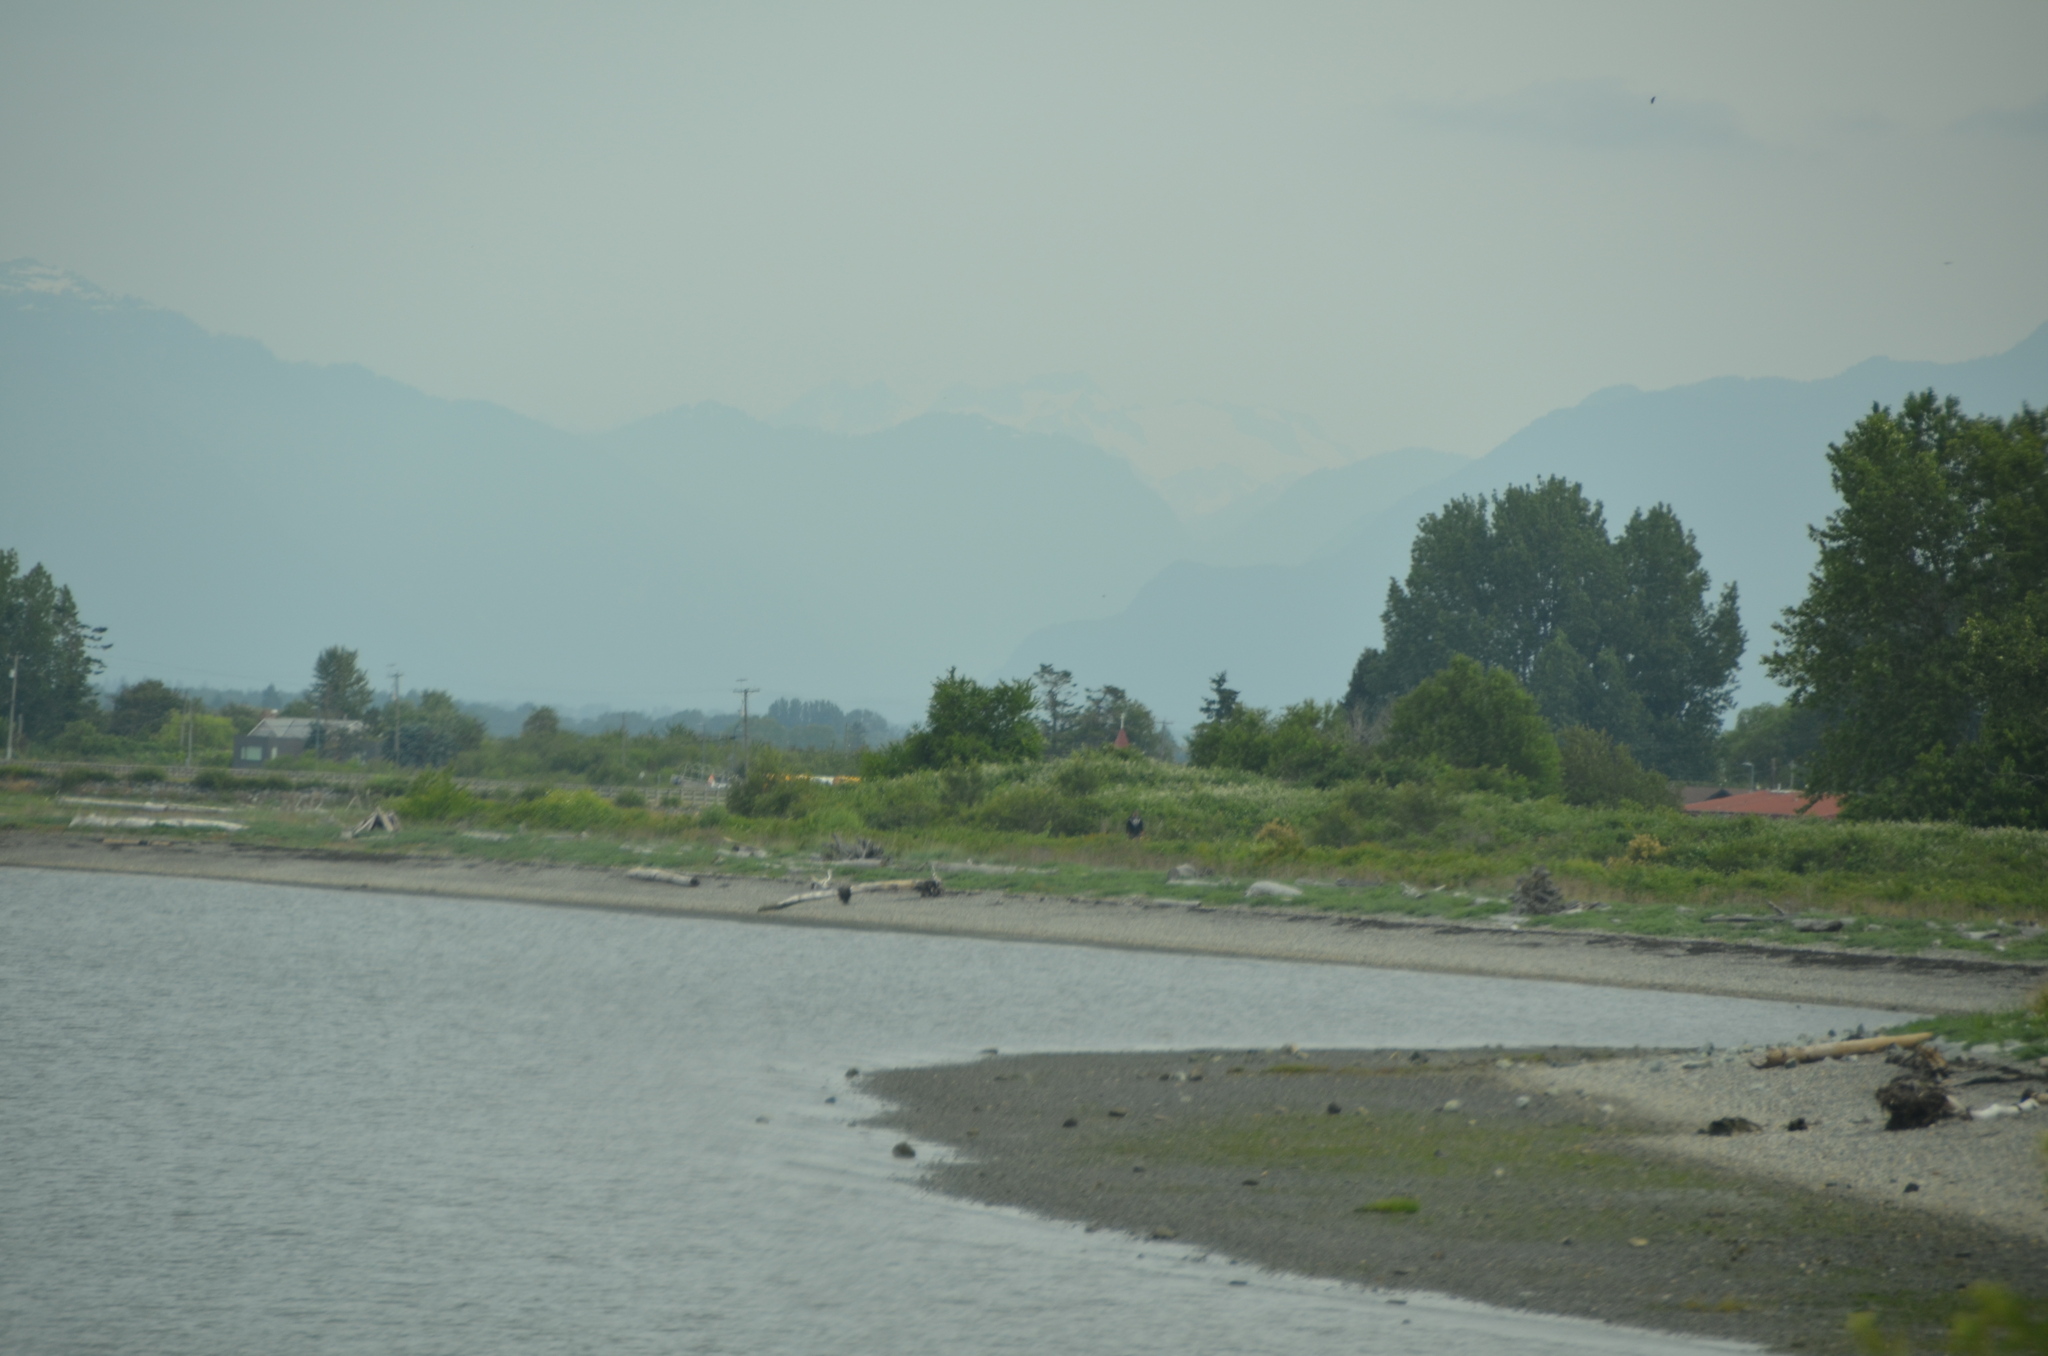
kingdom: Animalia
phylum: Chordata
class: Aves
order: Accipitriformes
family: Accipitridae
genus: Haliaeetus
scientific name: Haliaeetus leucocephalus
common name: Bald eagle
